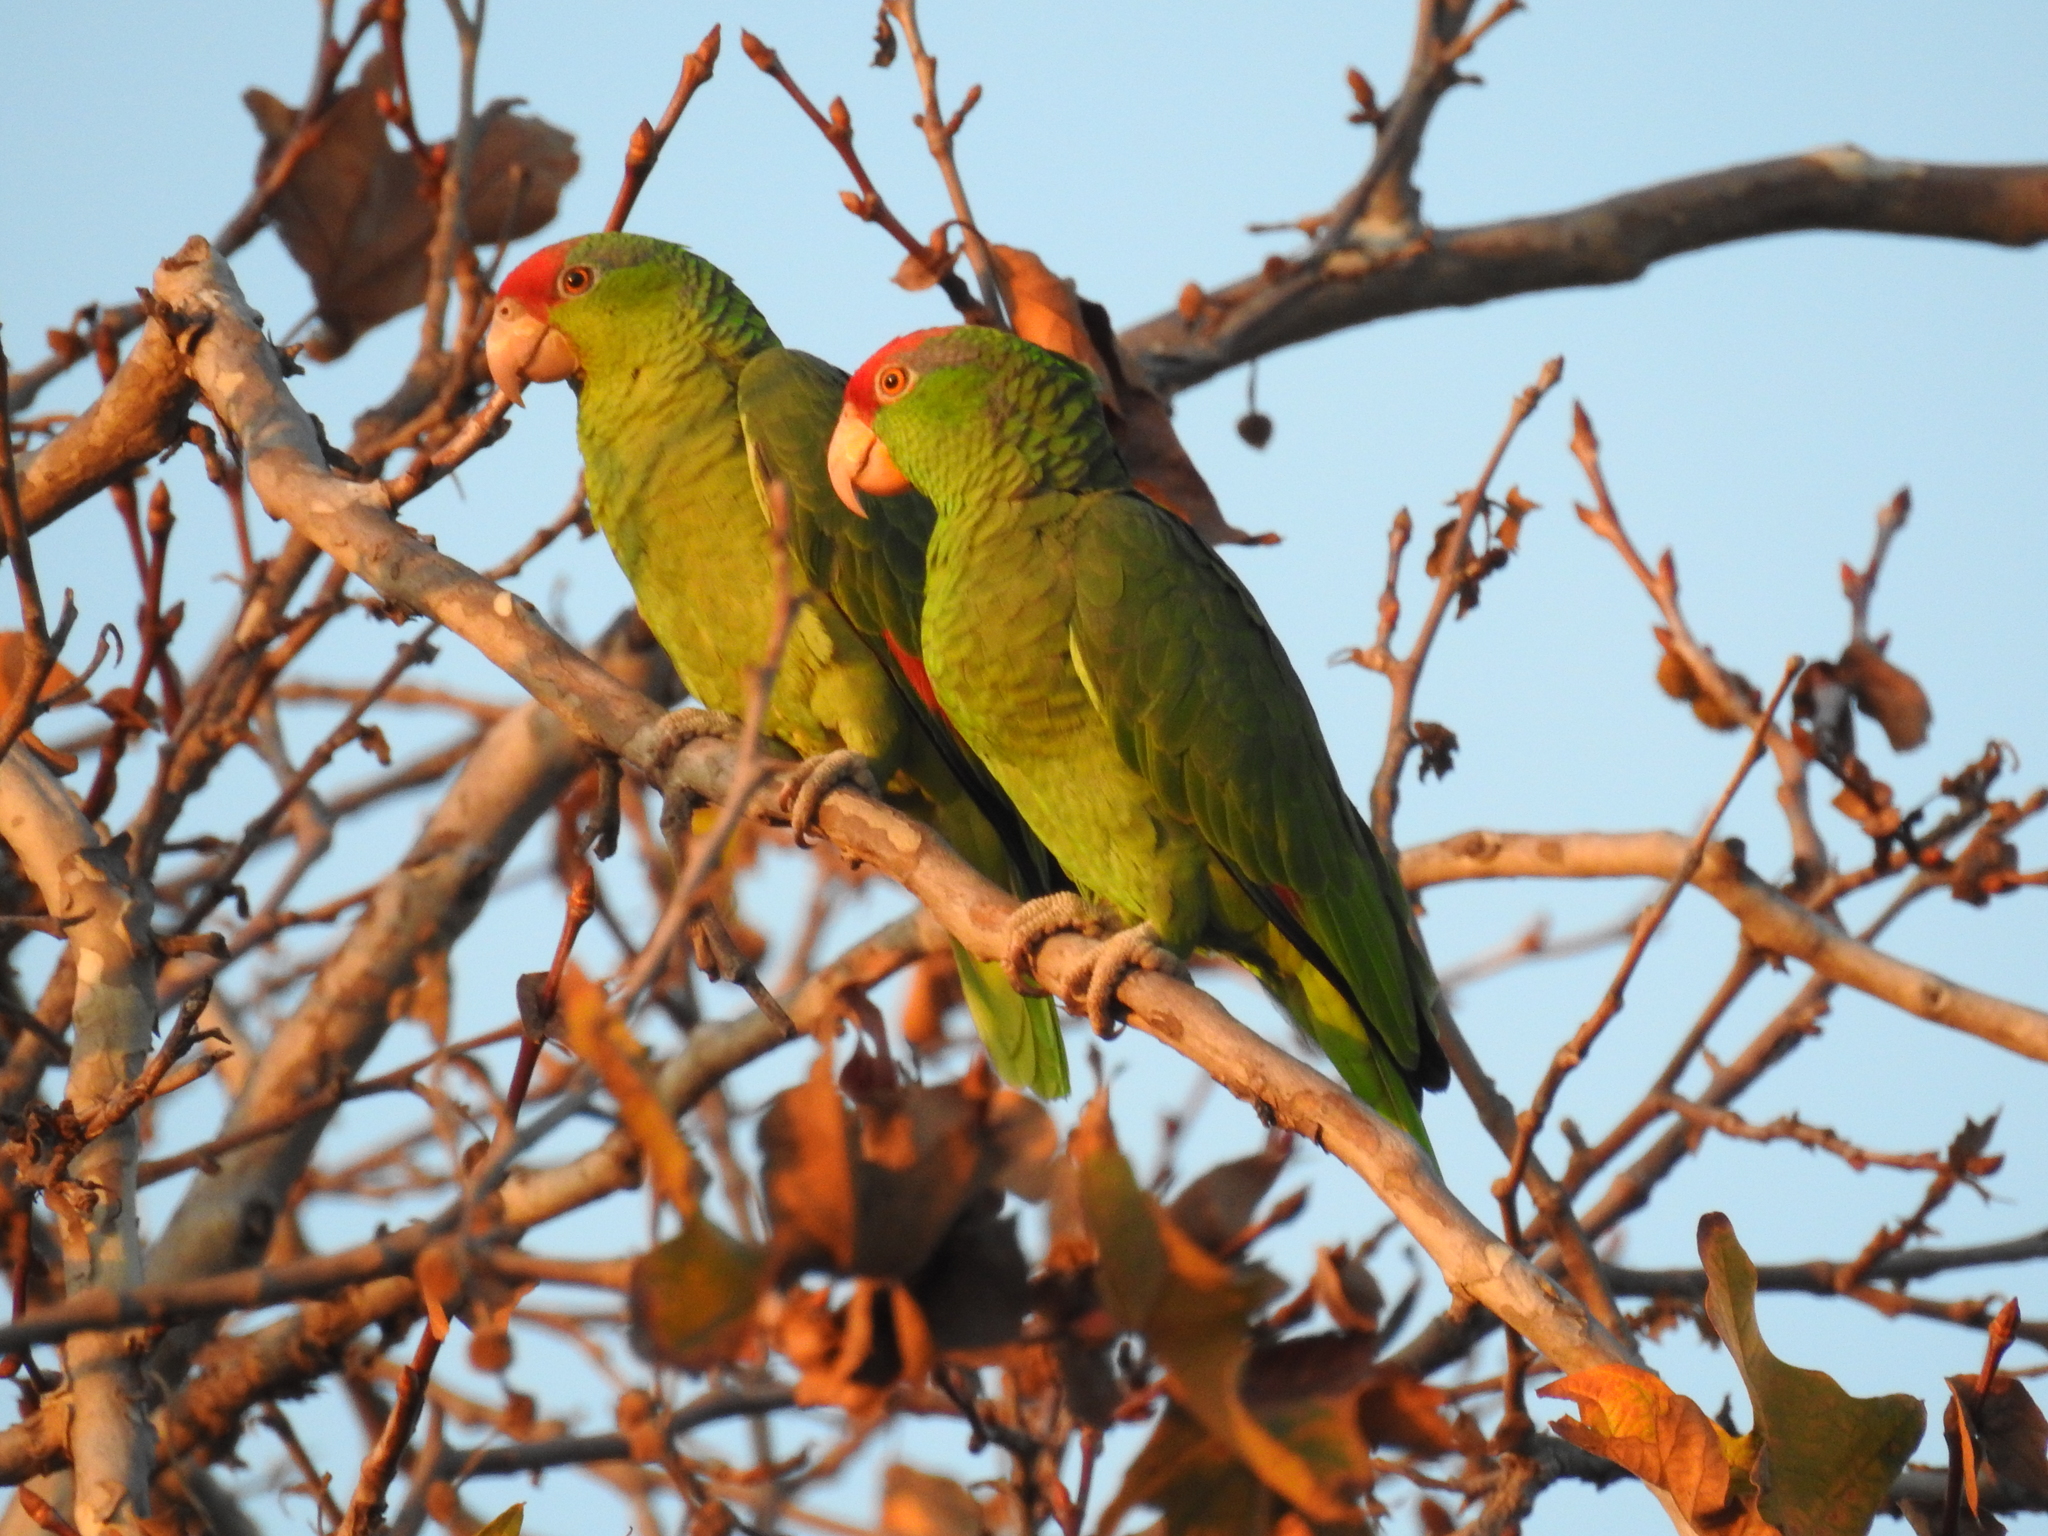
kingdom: Animalia
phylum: Chordata
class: Aves
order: Psittaciformes
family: Psittacidae
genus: Amazona
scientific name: Amazona viridigenalis
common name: Red-crowned amazon
